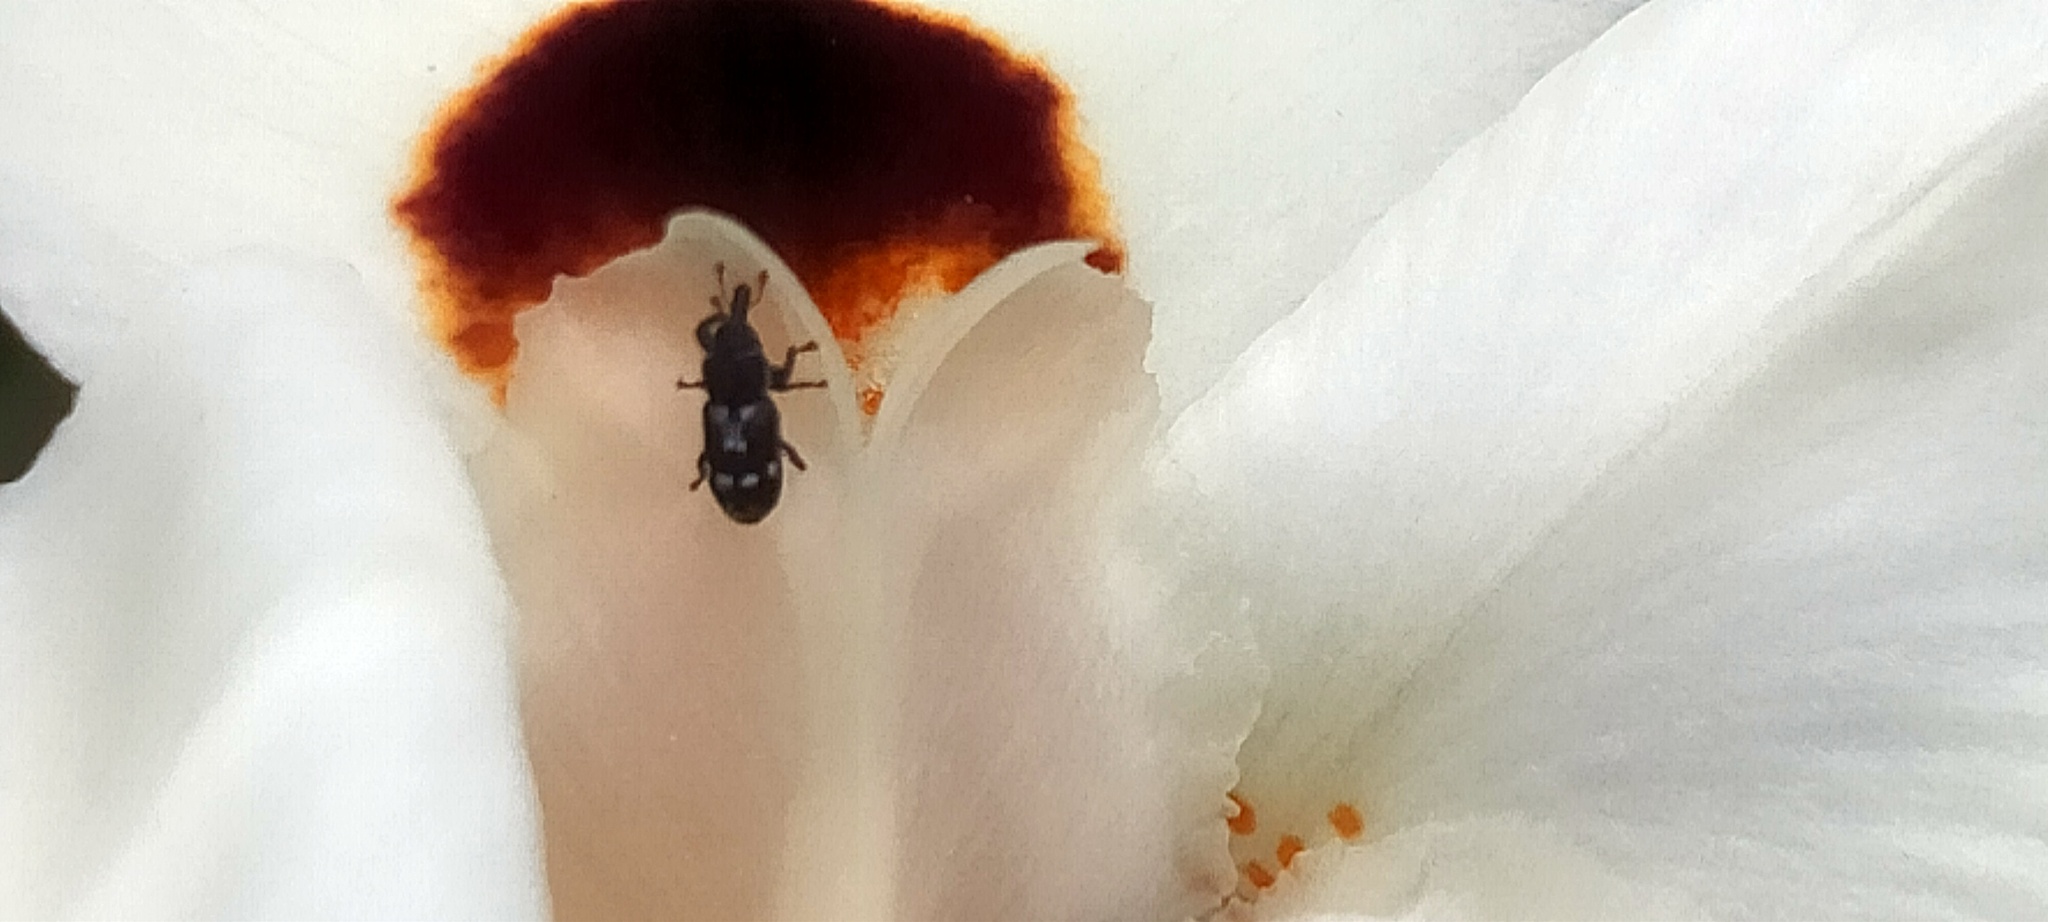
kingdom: Animalia
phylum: Arthropoda
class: Insecta
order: Coleoptera
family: Curculionidae
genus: Neolaemosaccus
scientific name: Neolaemosaccus ater
